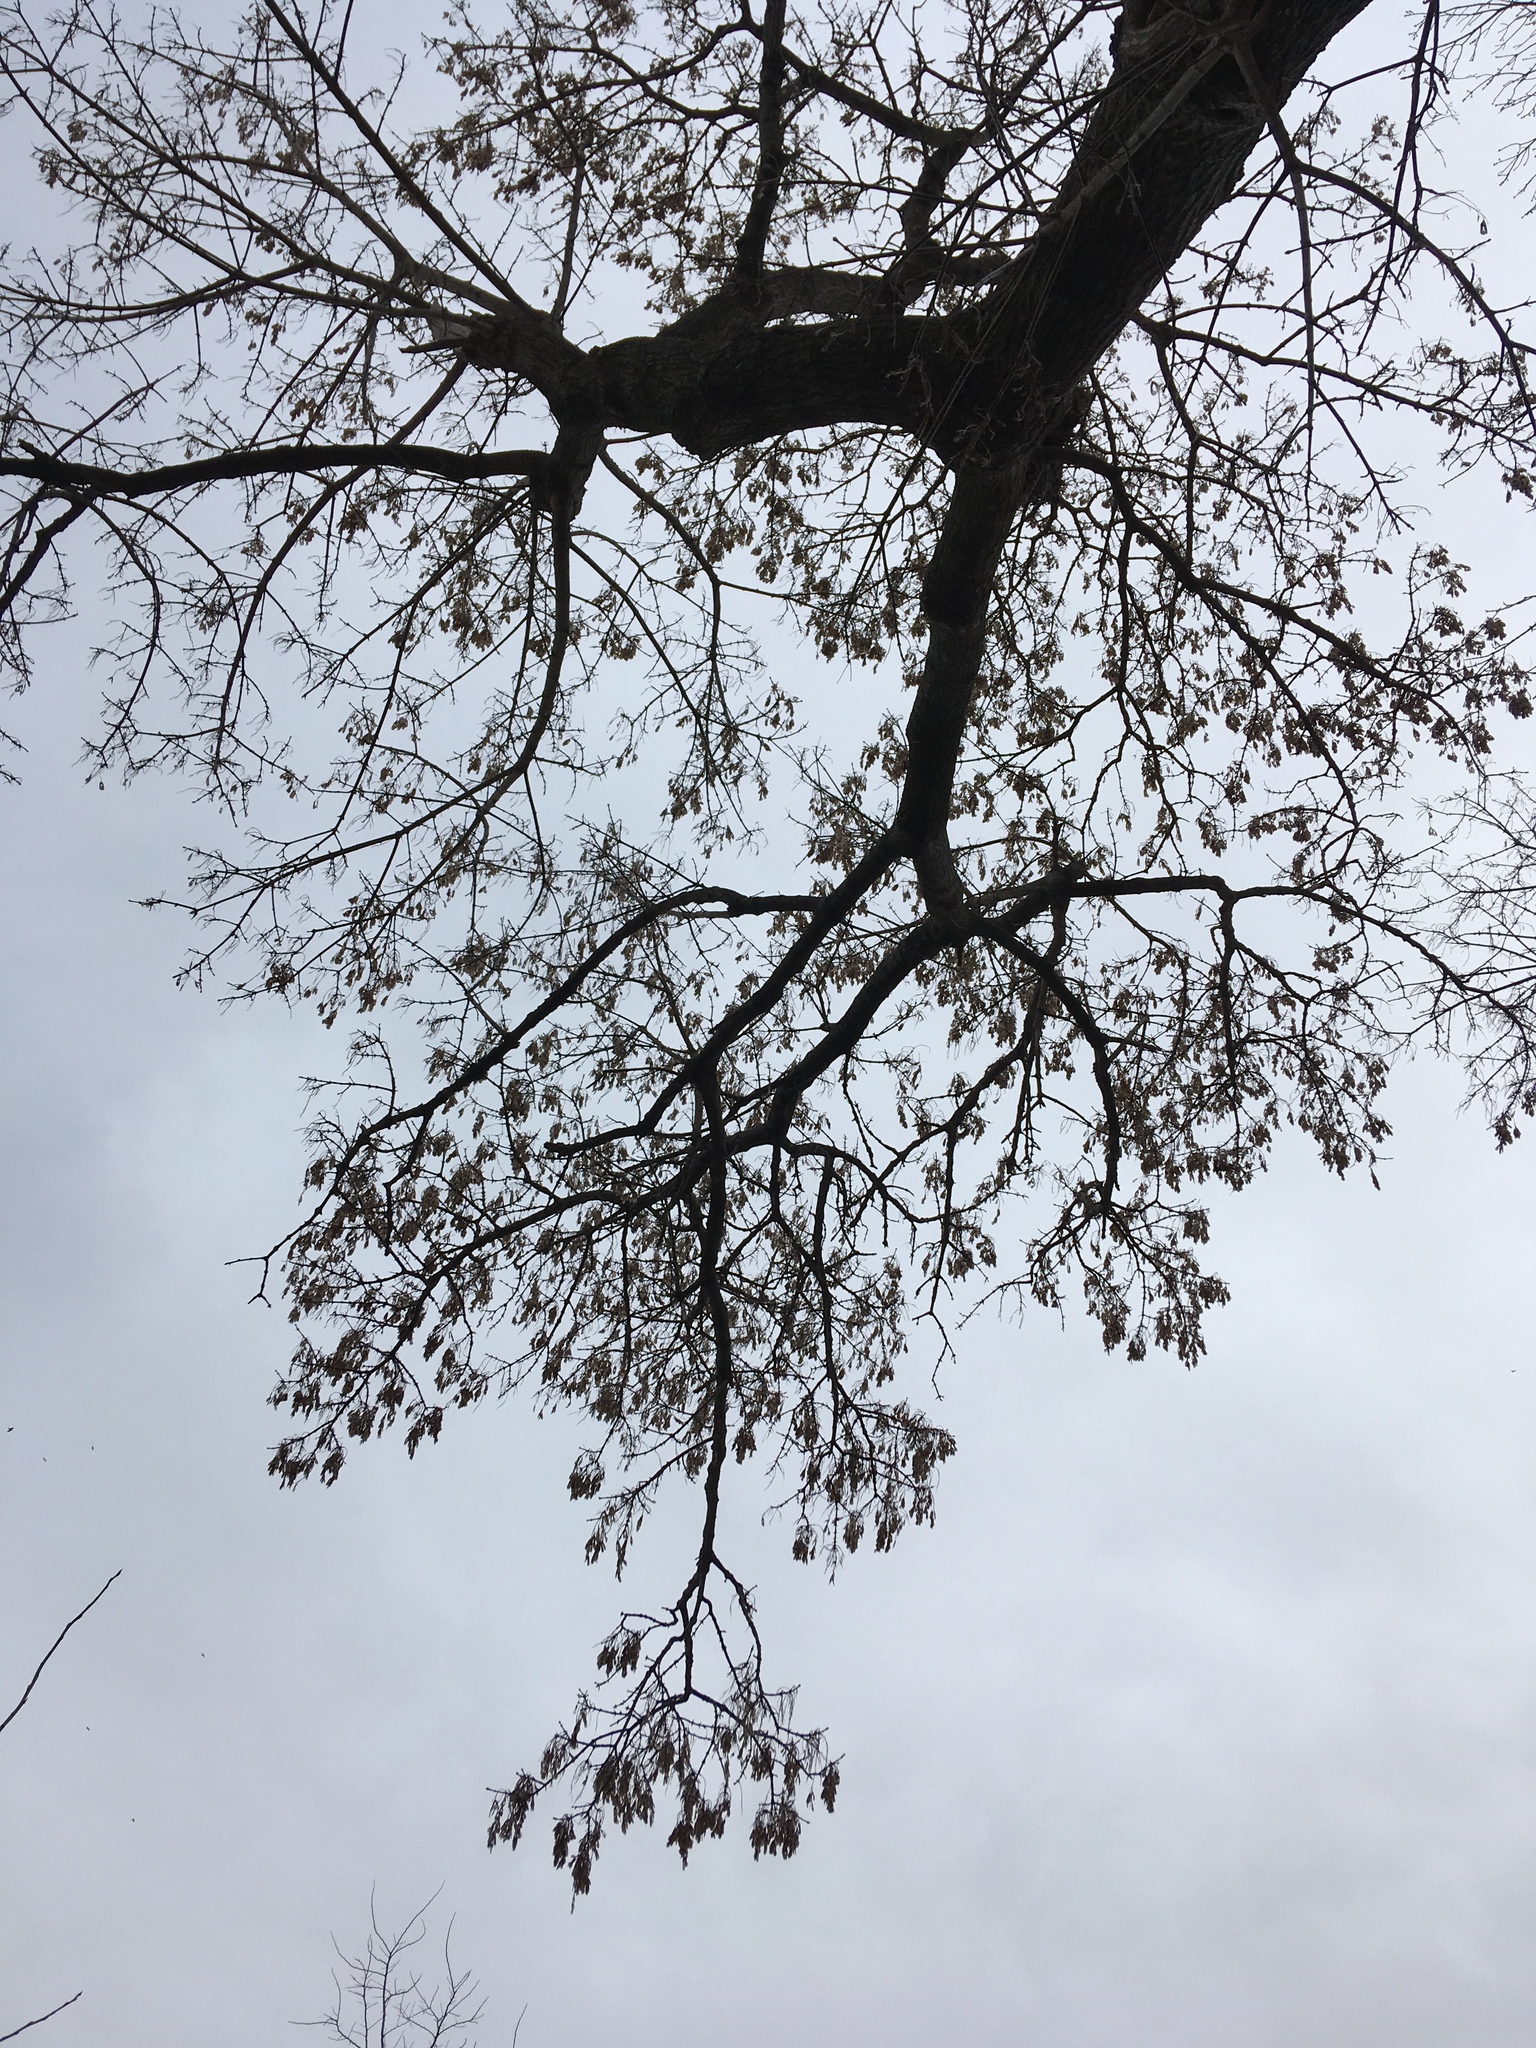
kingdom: Plantae
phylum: Tracheophyta
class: Magnoliopsida
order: Sapindales
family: Sapindaceae
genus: Acer
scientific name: Acer negundo
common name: Ashleaf maple
